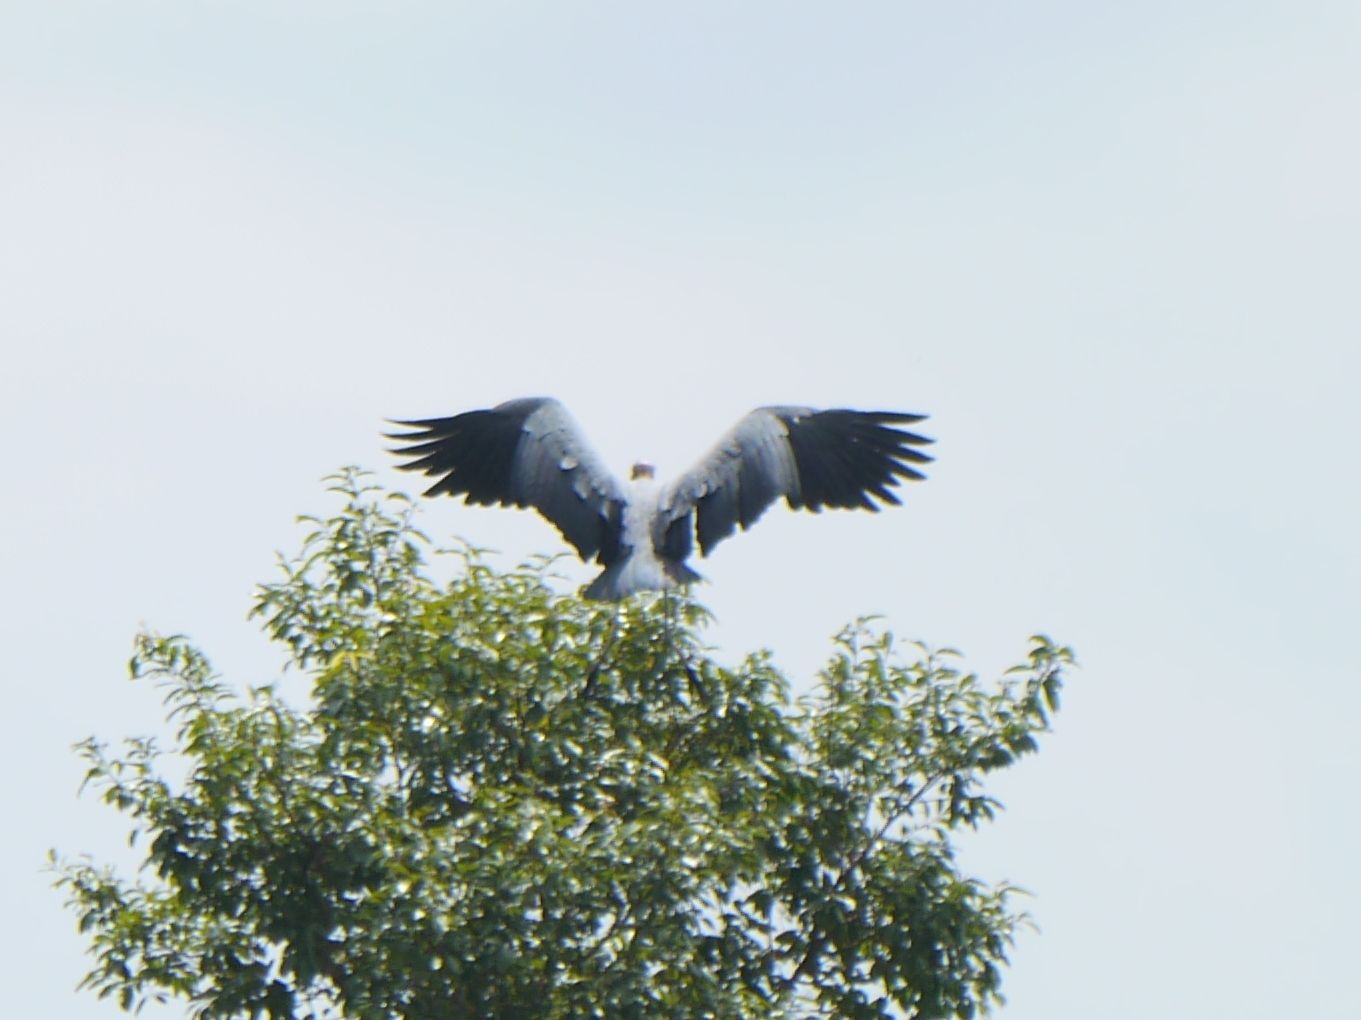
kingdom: Animalia
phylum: Chordata
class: Aves
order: Ciconiiformes
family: Ciconiidae
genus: Leptoptilos
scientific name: Leptoptilos javanicus
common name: Lesser adjutant
